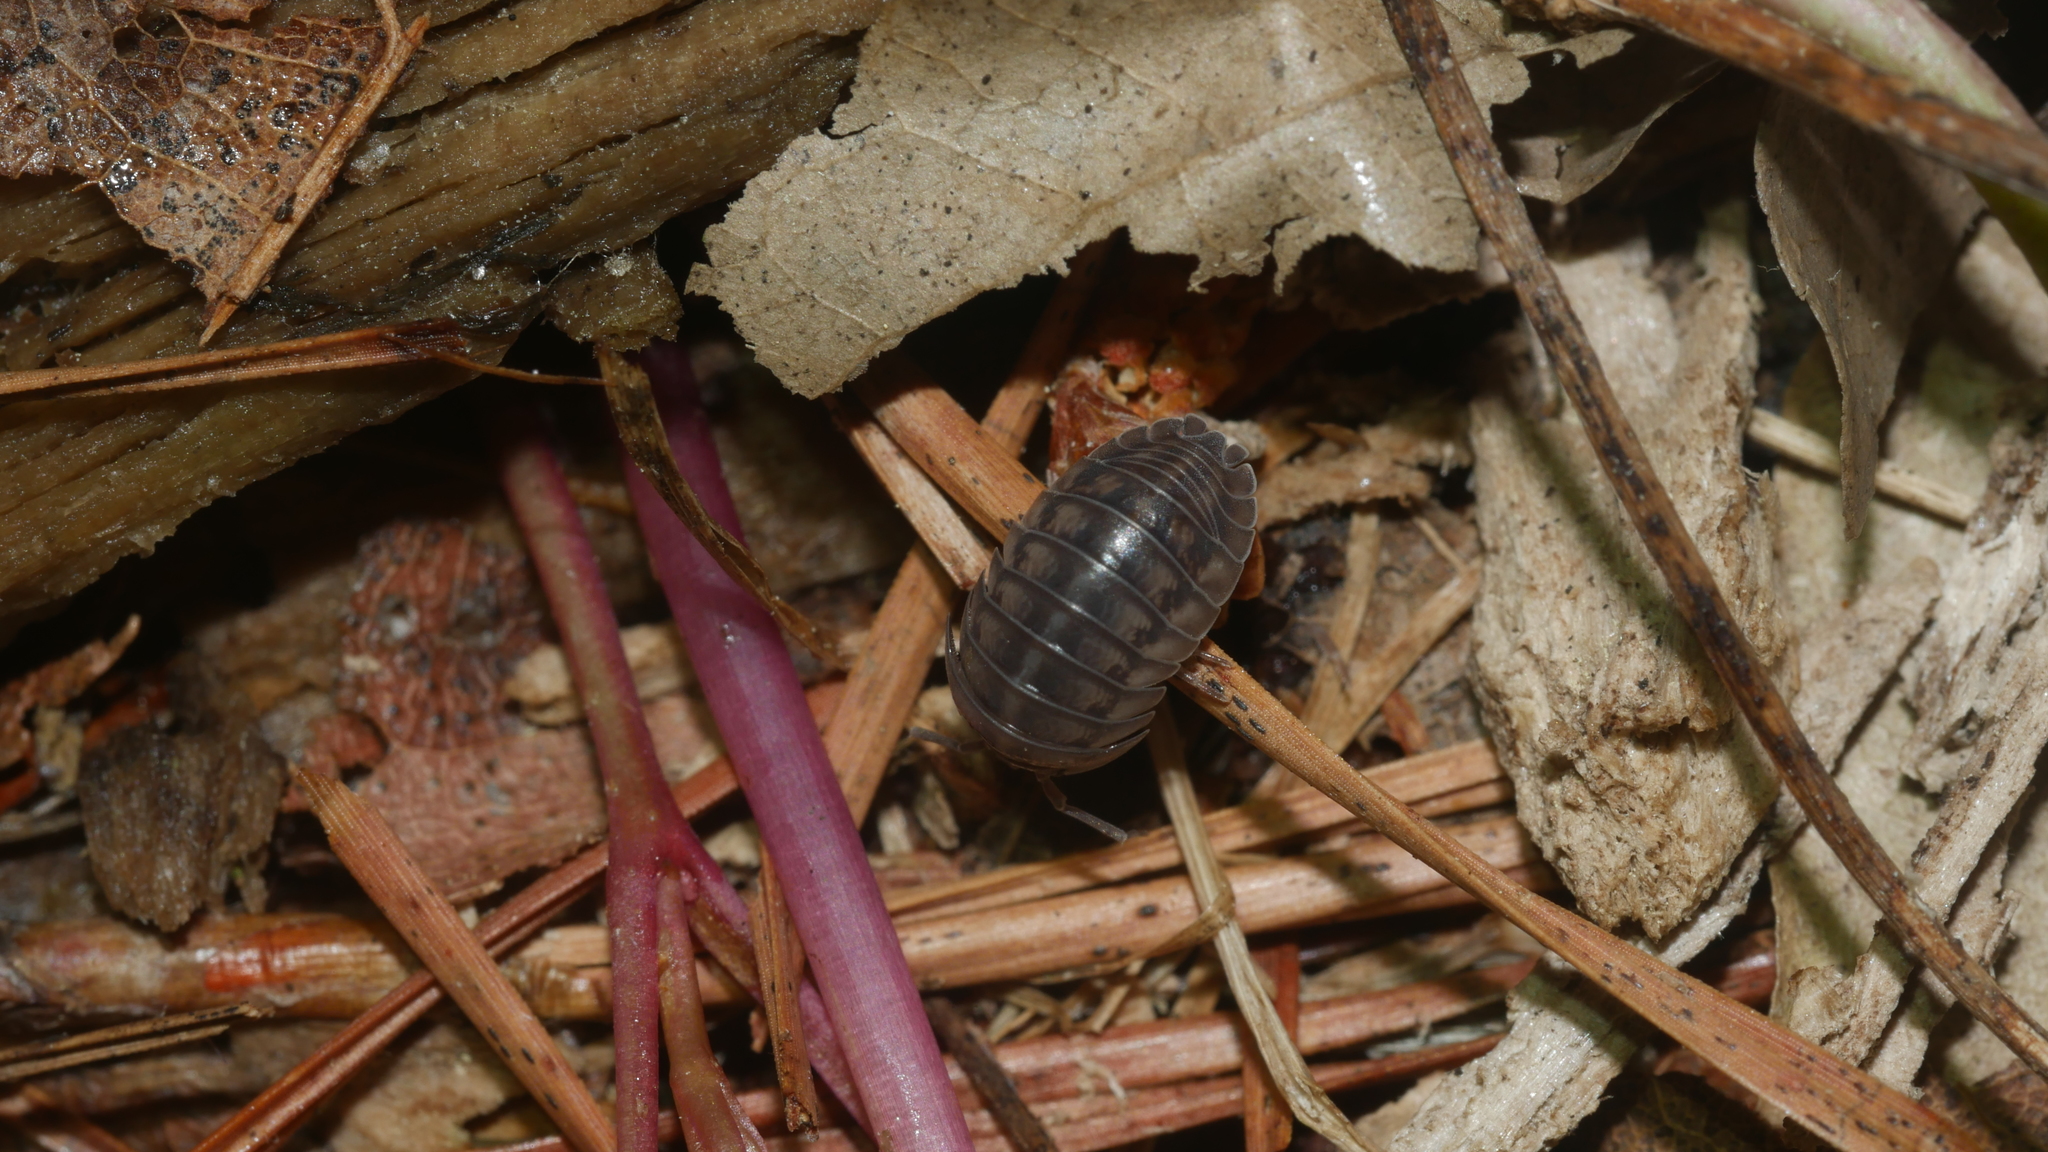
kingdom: Animalia
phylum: Arthropoda
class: Malacostraca
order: Isopoda
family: Armadillidiidae
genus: Armadillidium
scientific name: Armadillidium nasatum
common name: Isopod
